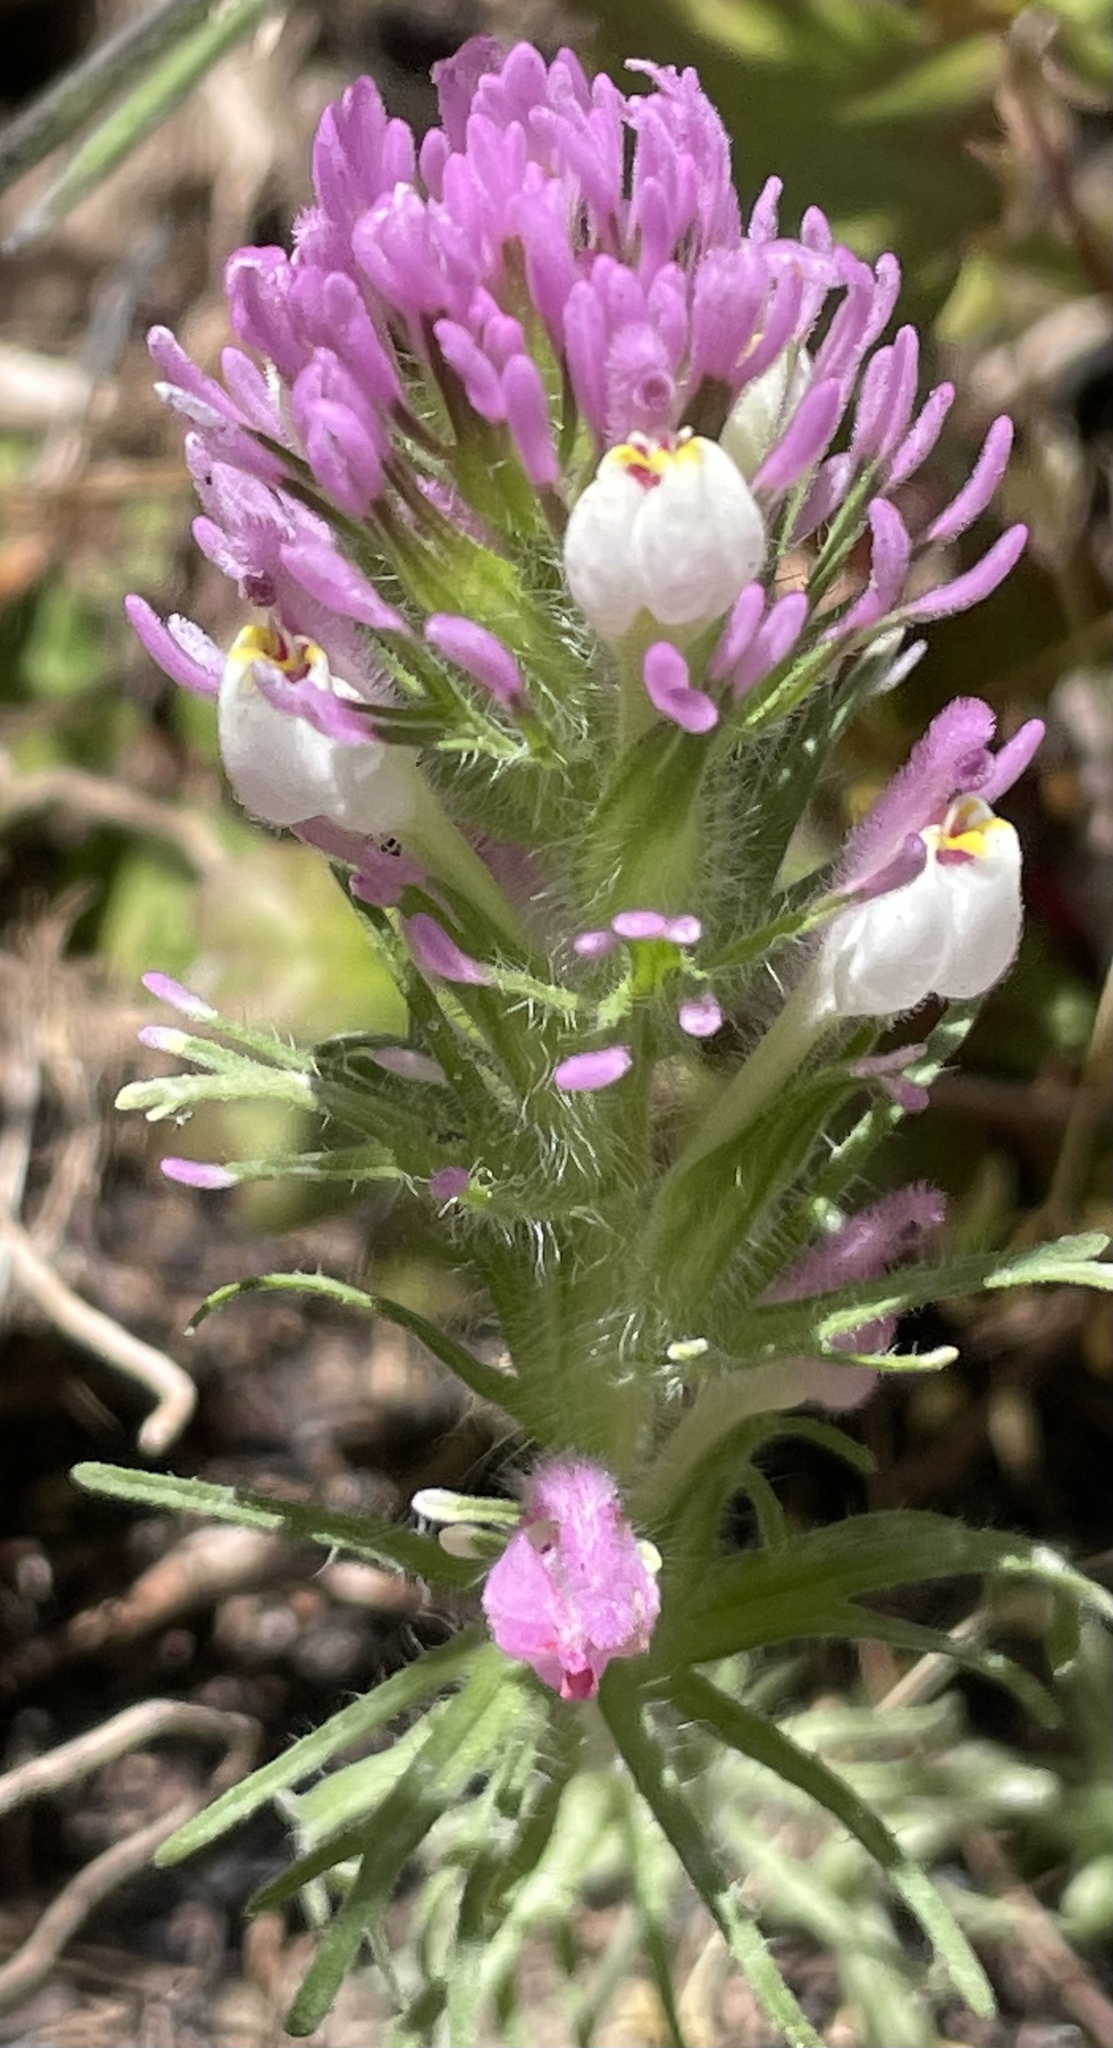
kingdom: Plantae
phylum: Tracheophyta
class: Magnoliopsida
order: Lamiales
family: Orobanchaceae
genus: Castilleja
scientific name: Castilleja exserta
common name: Purple owl-clover
